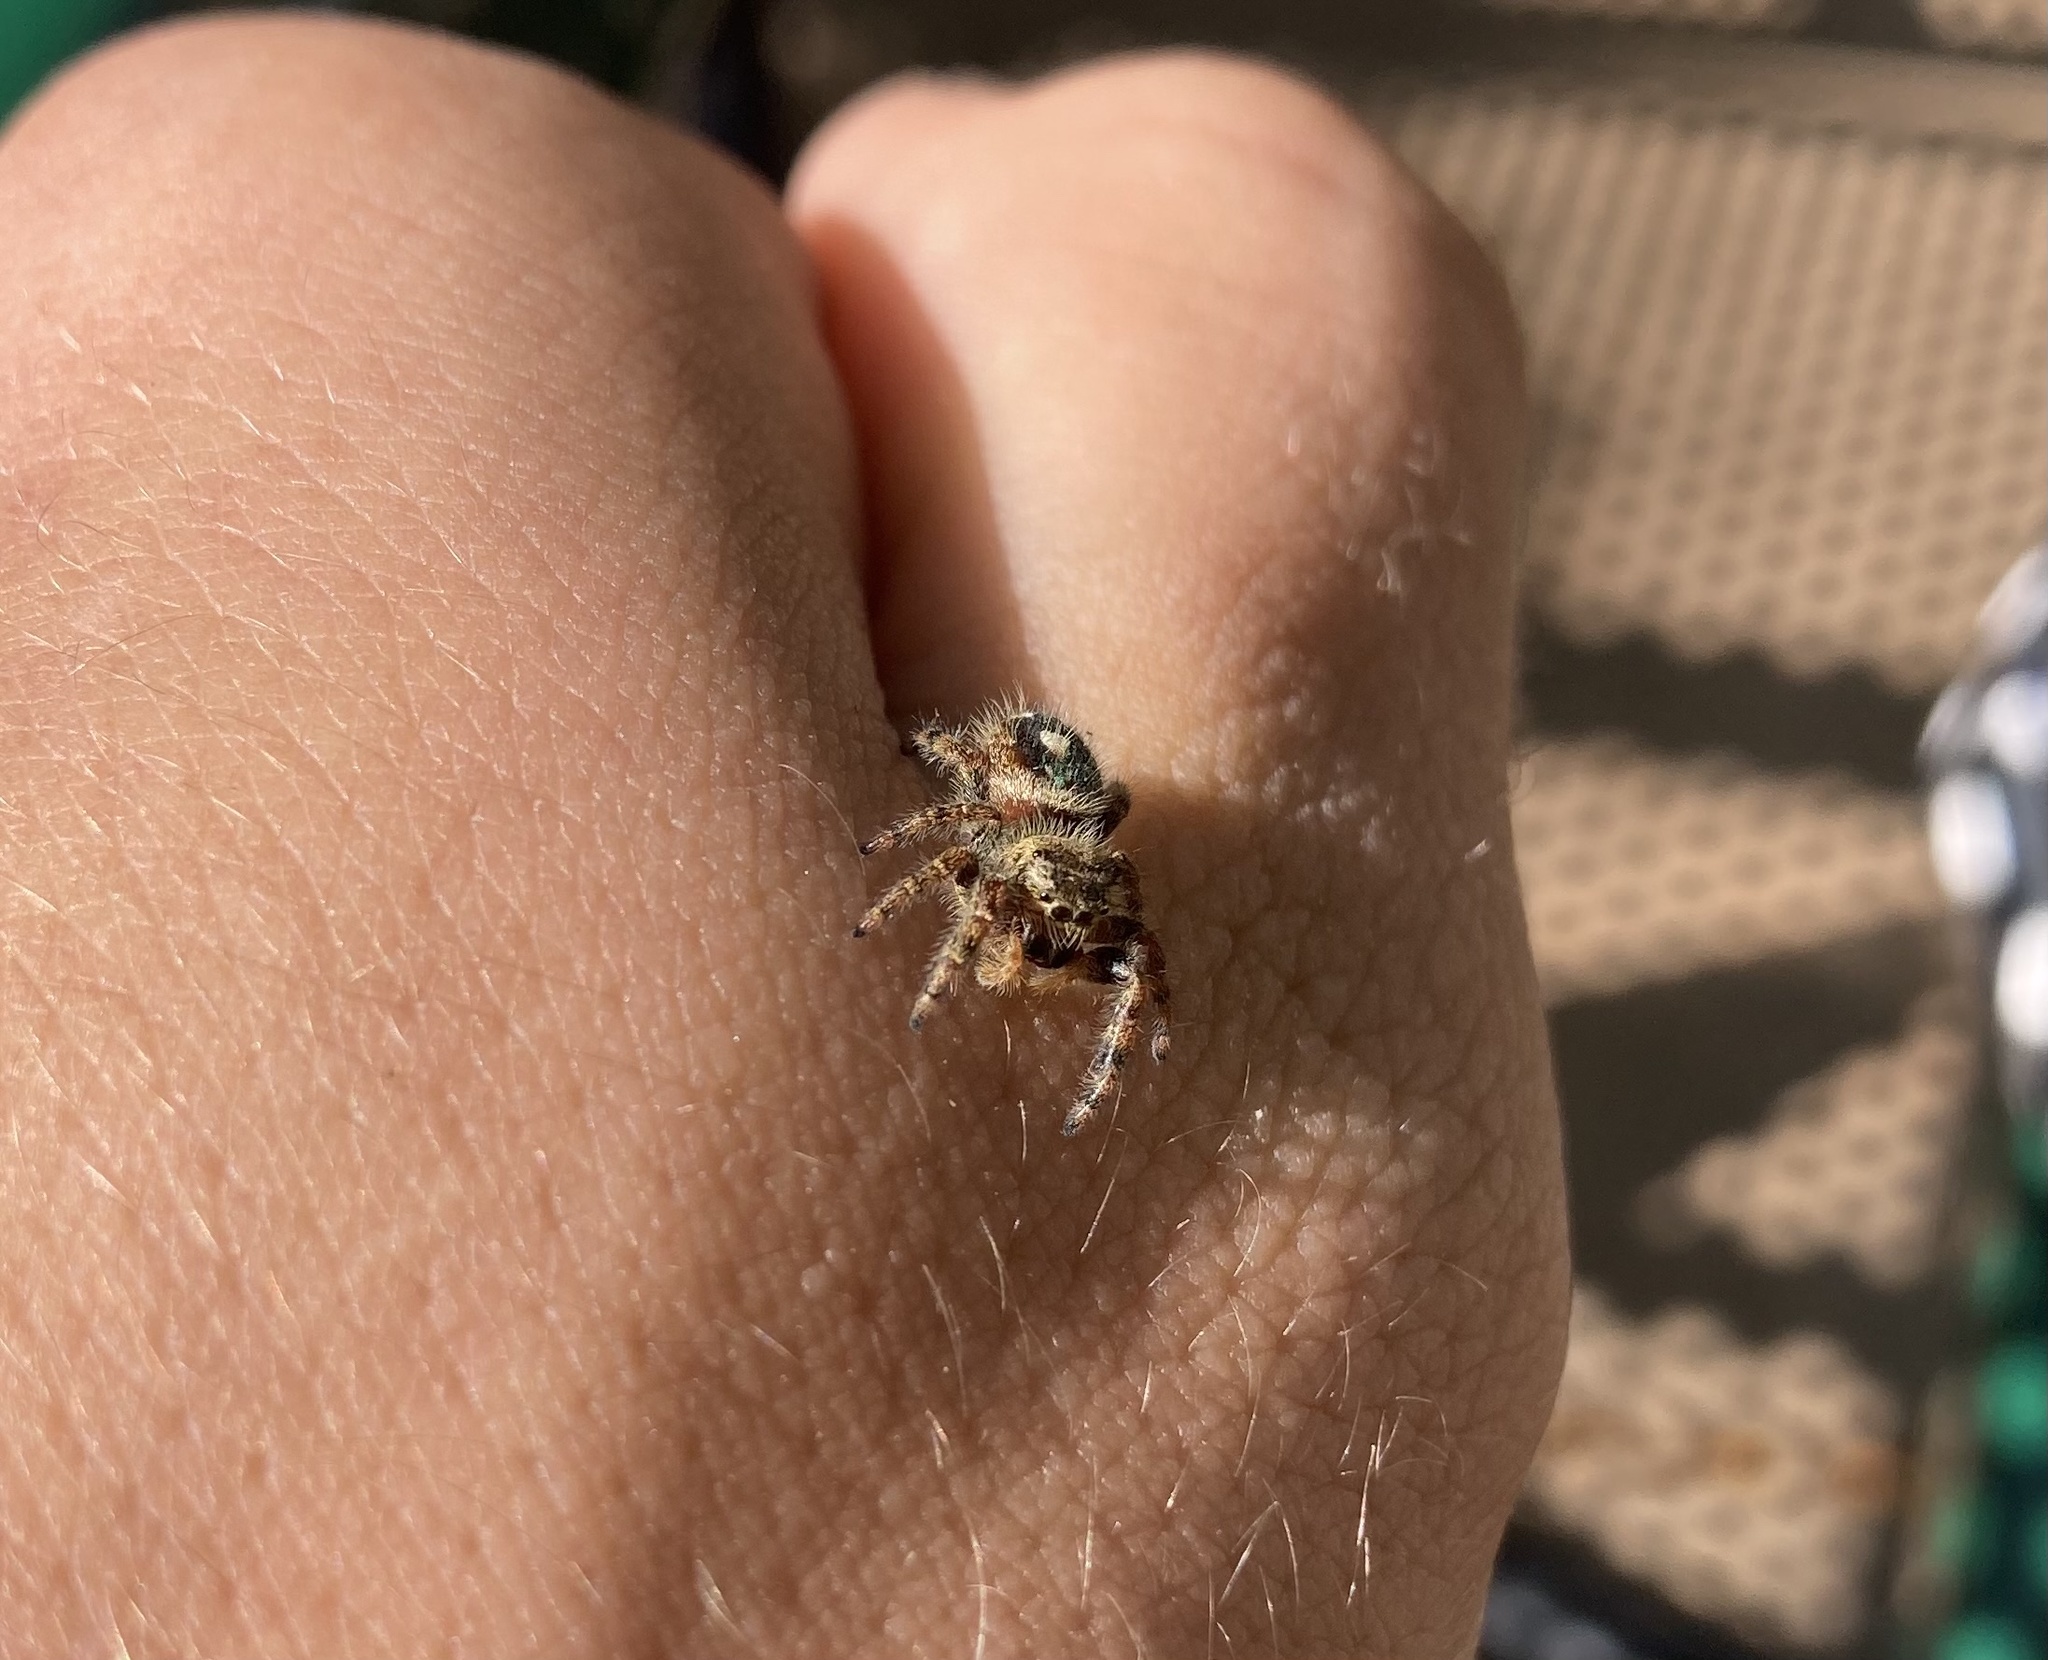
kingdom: Animalia
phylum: Arthropoda
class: Arachnida
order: Araneae
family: Salticidae
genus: Phidippus
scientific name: Phidippus audax
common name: Bold jumper
